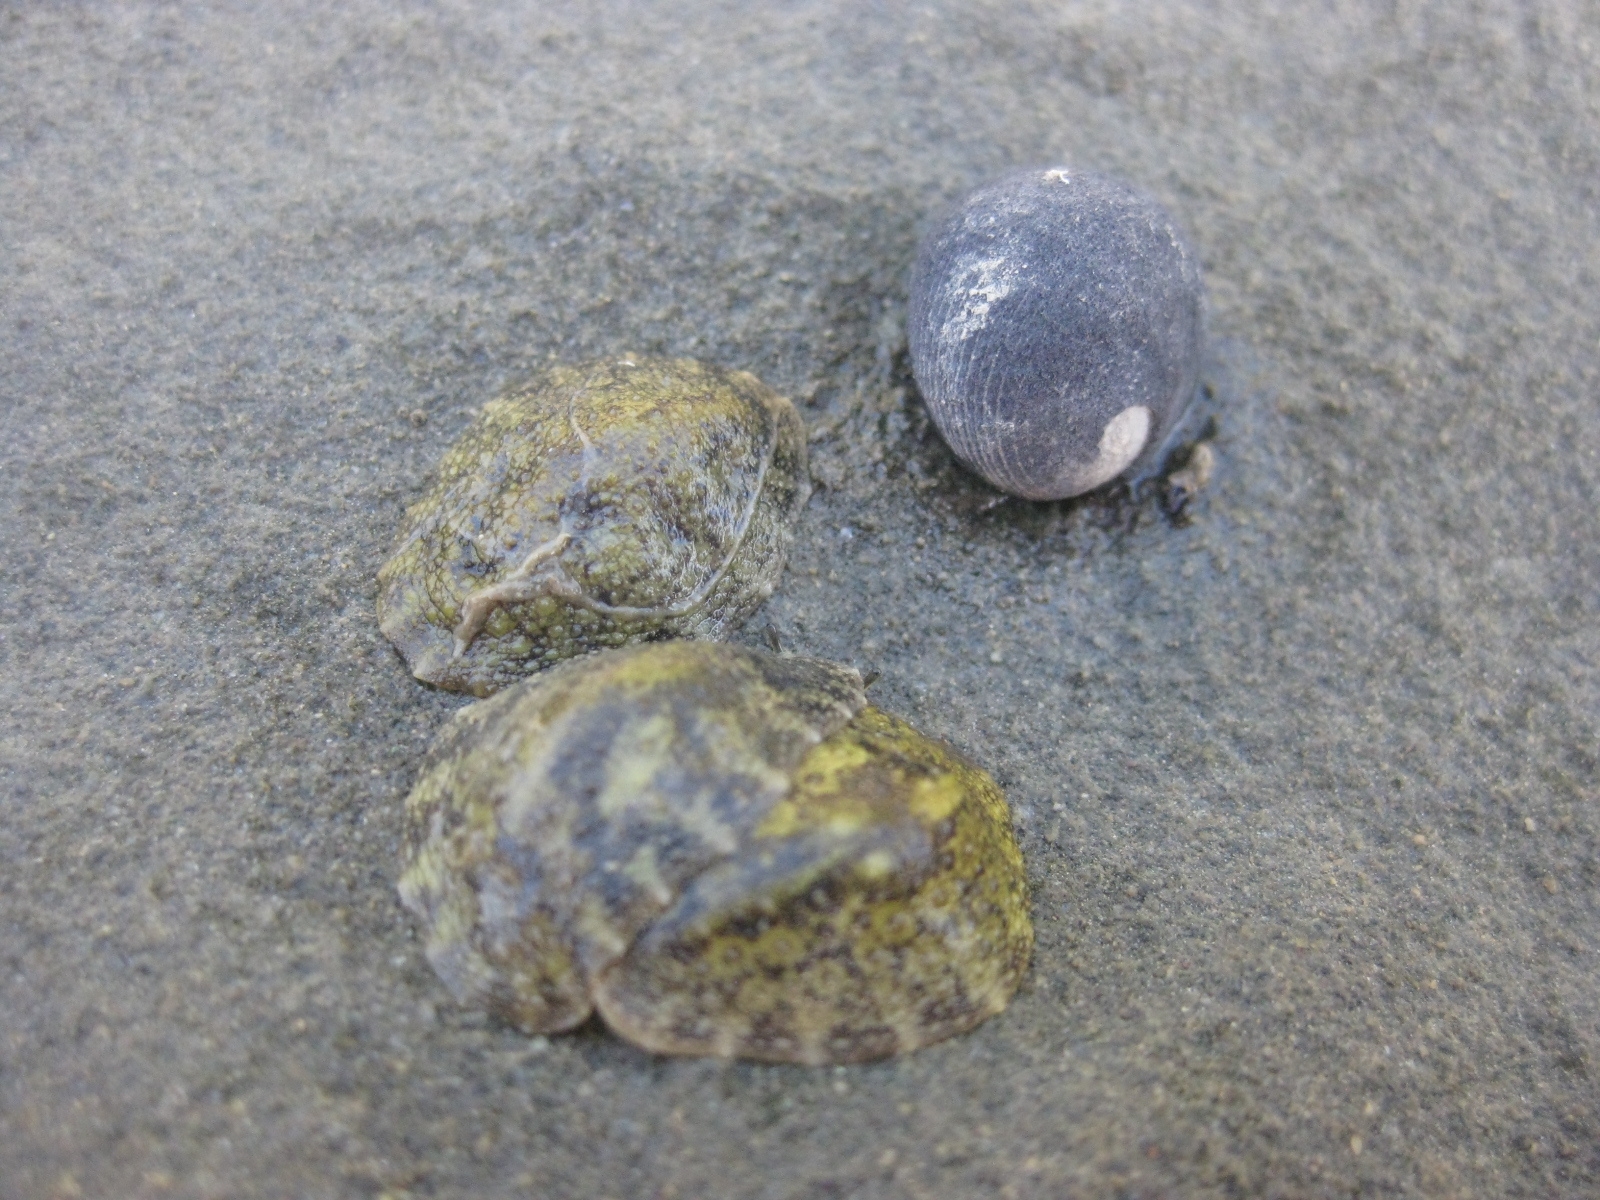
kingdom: Animalia
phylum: Mollusca
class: Gastropoda
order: Cycloneritida
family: Neritidae
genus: Nerita
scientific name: Nerita melanotragus
